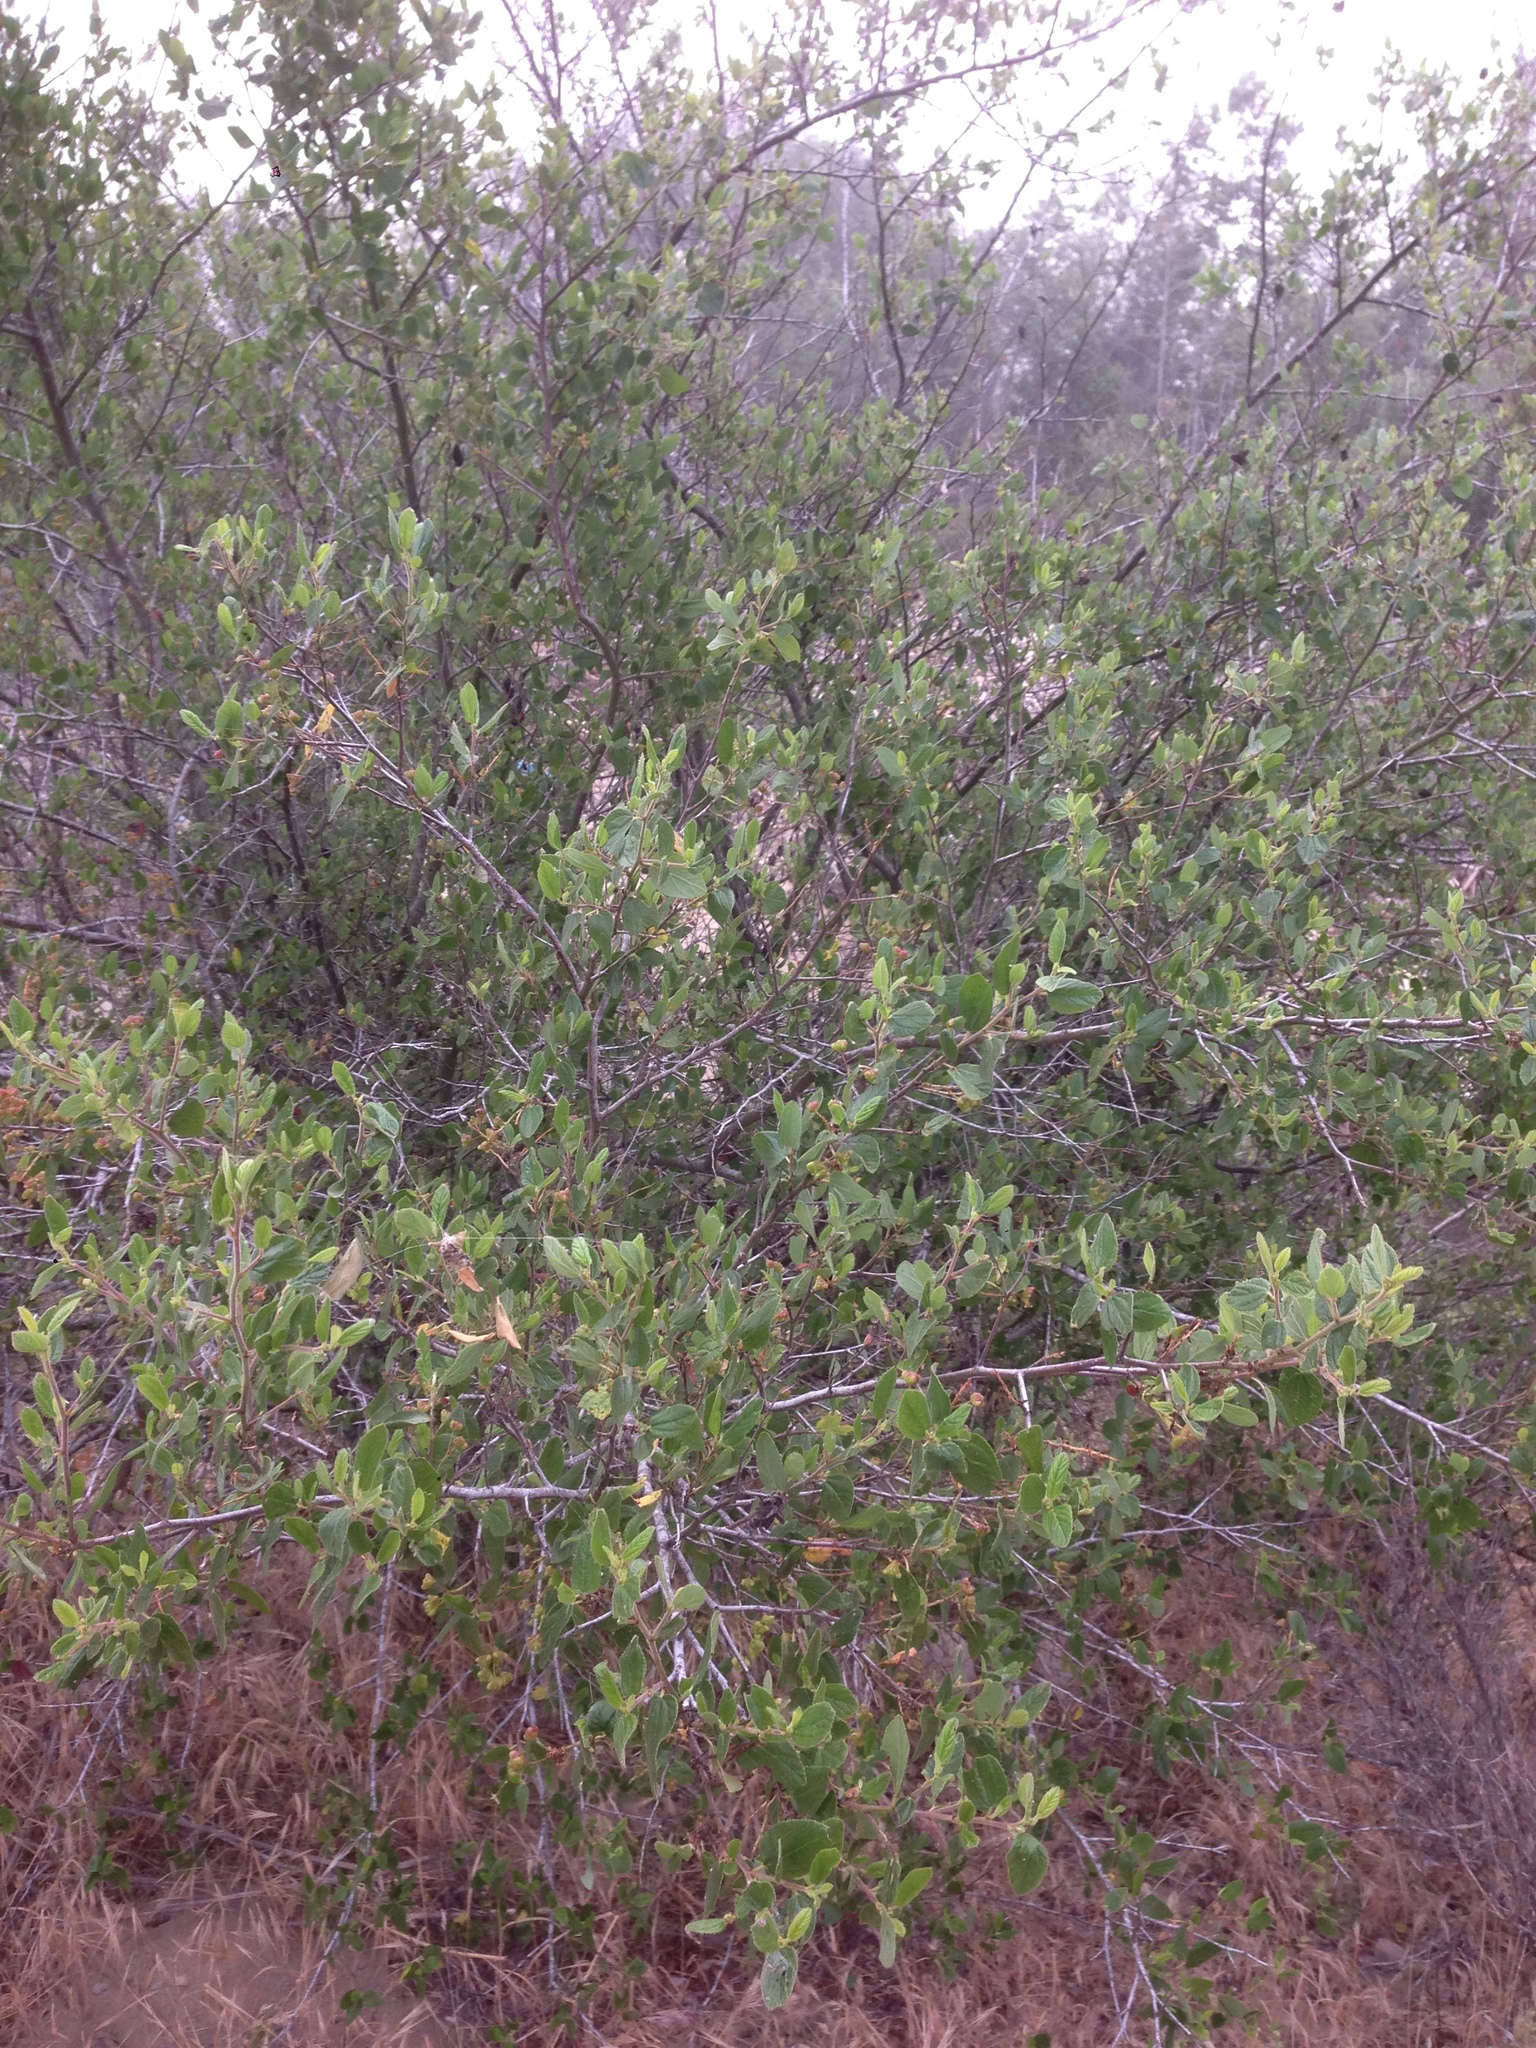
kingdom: Plantae
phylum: Tracheophyta
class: Magnoliopsida
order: Rosales
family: Rhamnaceae
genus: Ceanothus
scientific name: Ceanothus oliganthus
